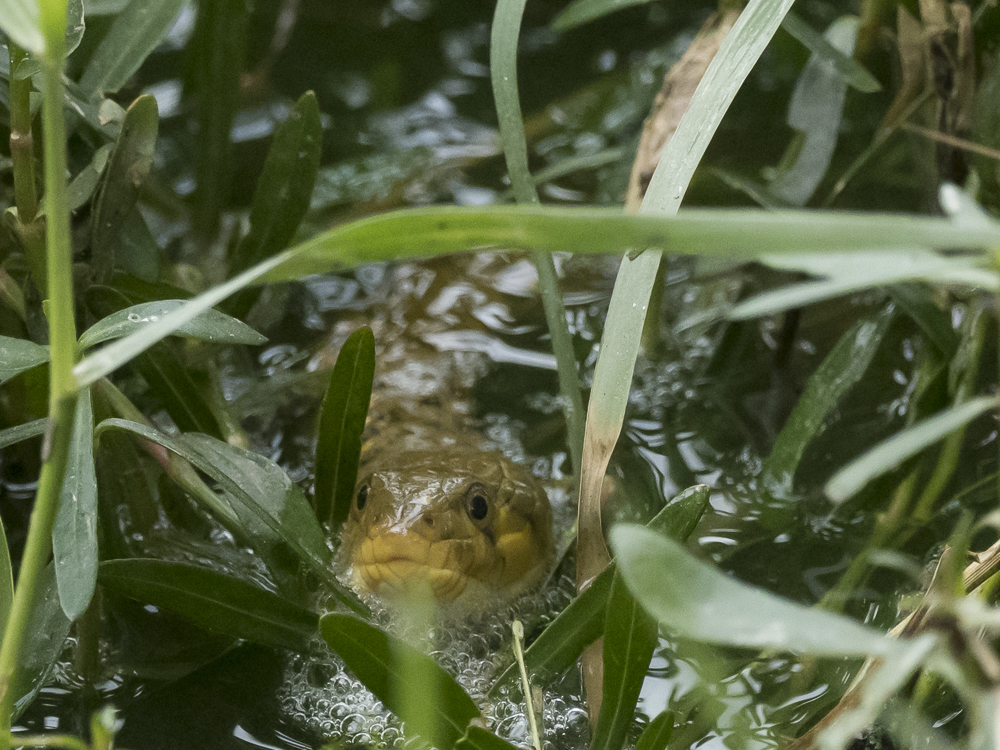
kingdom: Animalia
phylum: Chordata
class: Squamata
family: Colubridae
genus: Fowlea
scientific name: Fowlea piscator
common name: Asiatic water snake
